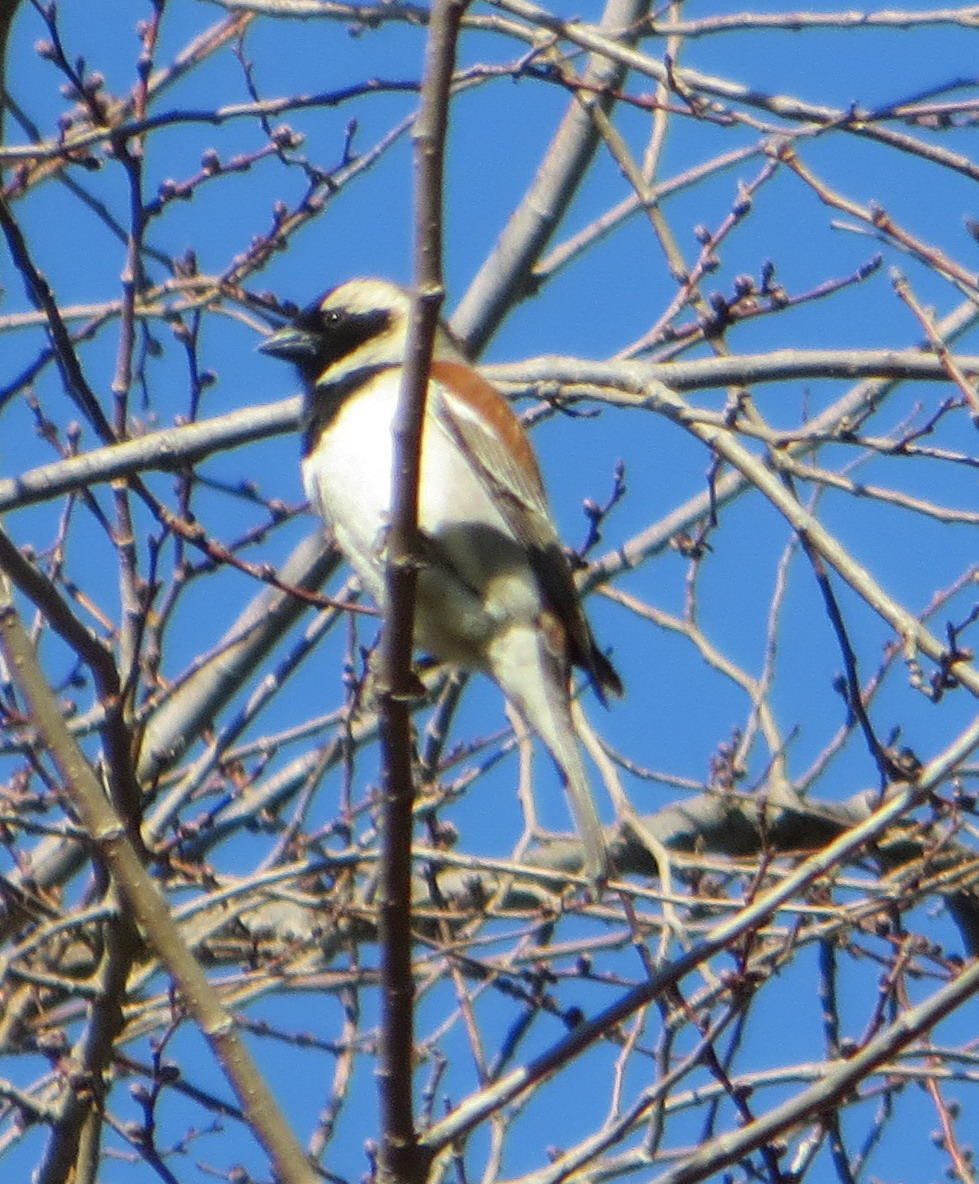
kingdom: Animalia
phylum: Chordata
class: Aves
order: Passeriformes
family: Passeridae
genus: Passer
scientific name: Passer melanurus
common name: Cape sparrow
